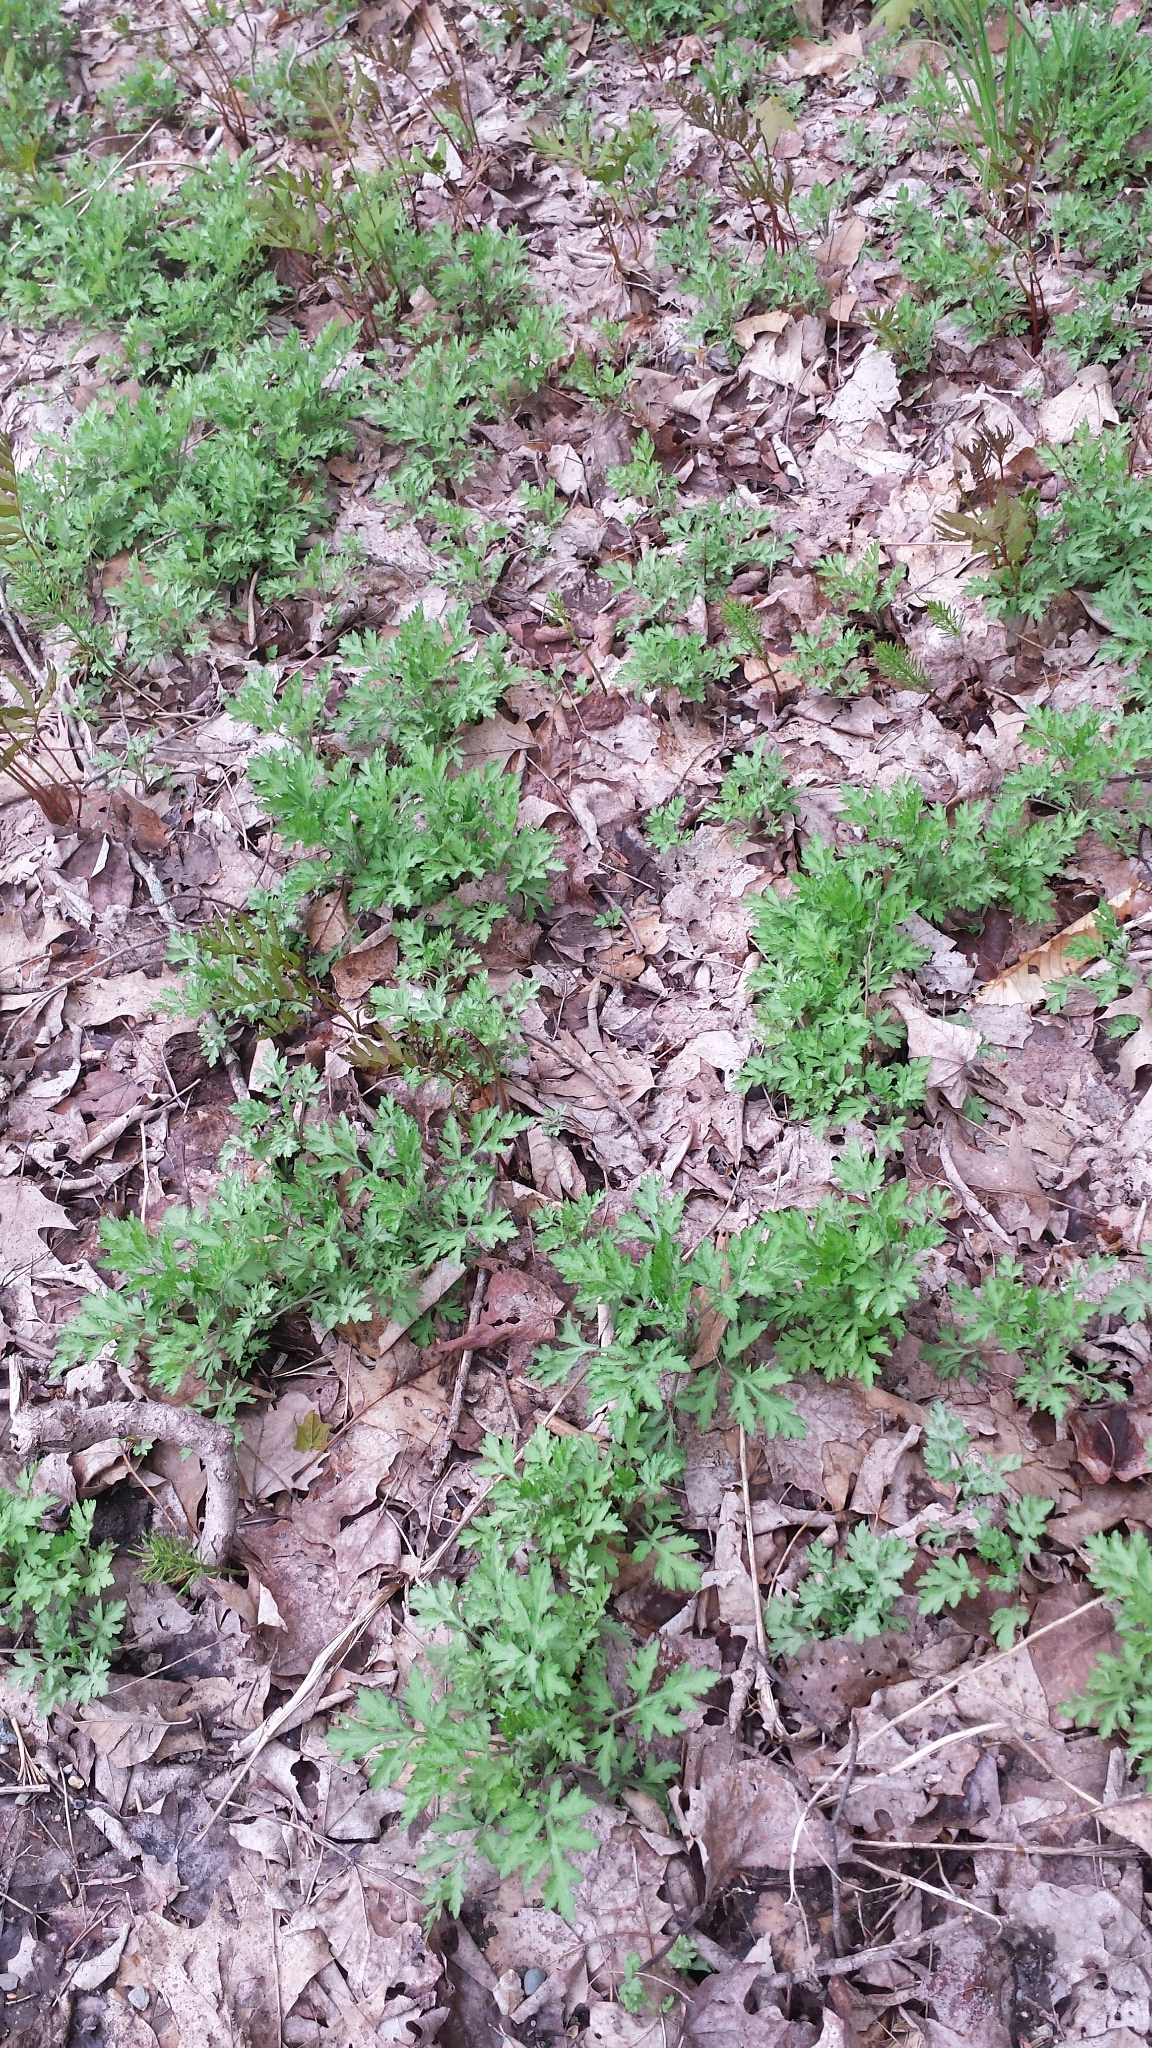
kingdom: Plantae
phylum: Tracheophyta
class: Magnoliopsida
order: Asterales
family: Asteraceae
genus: Artemisia
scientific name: Artemisia vulgaris
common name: Mugwort
